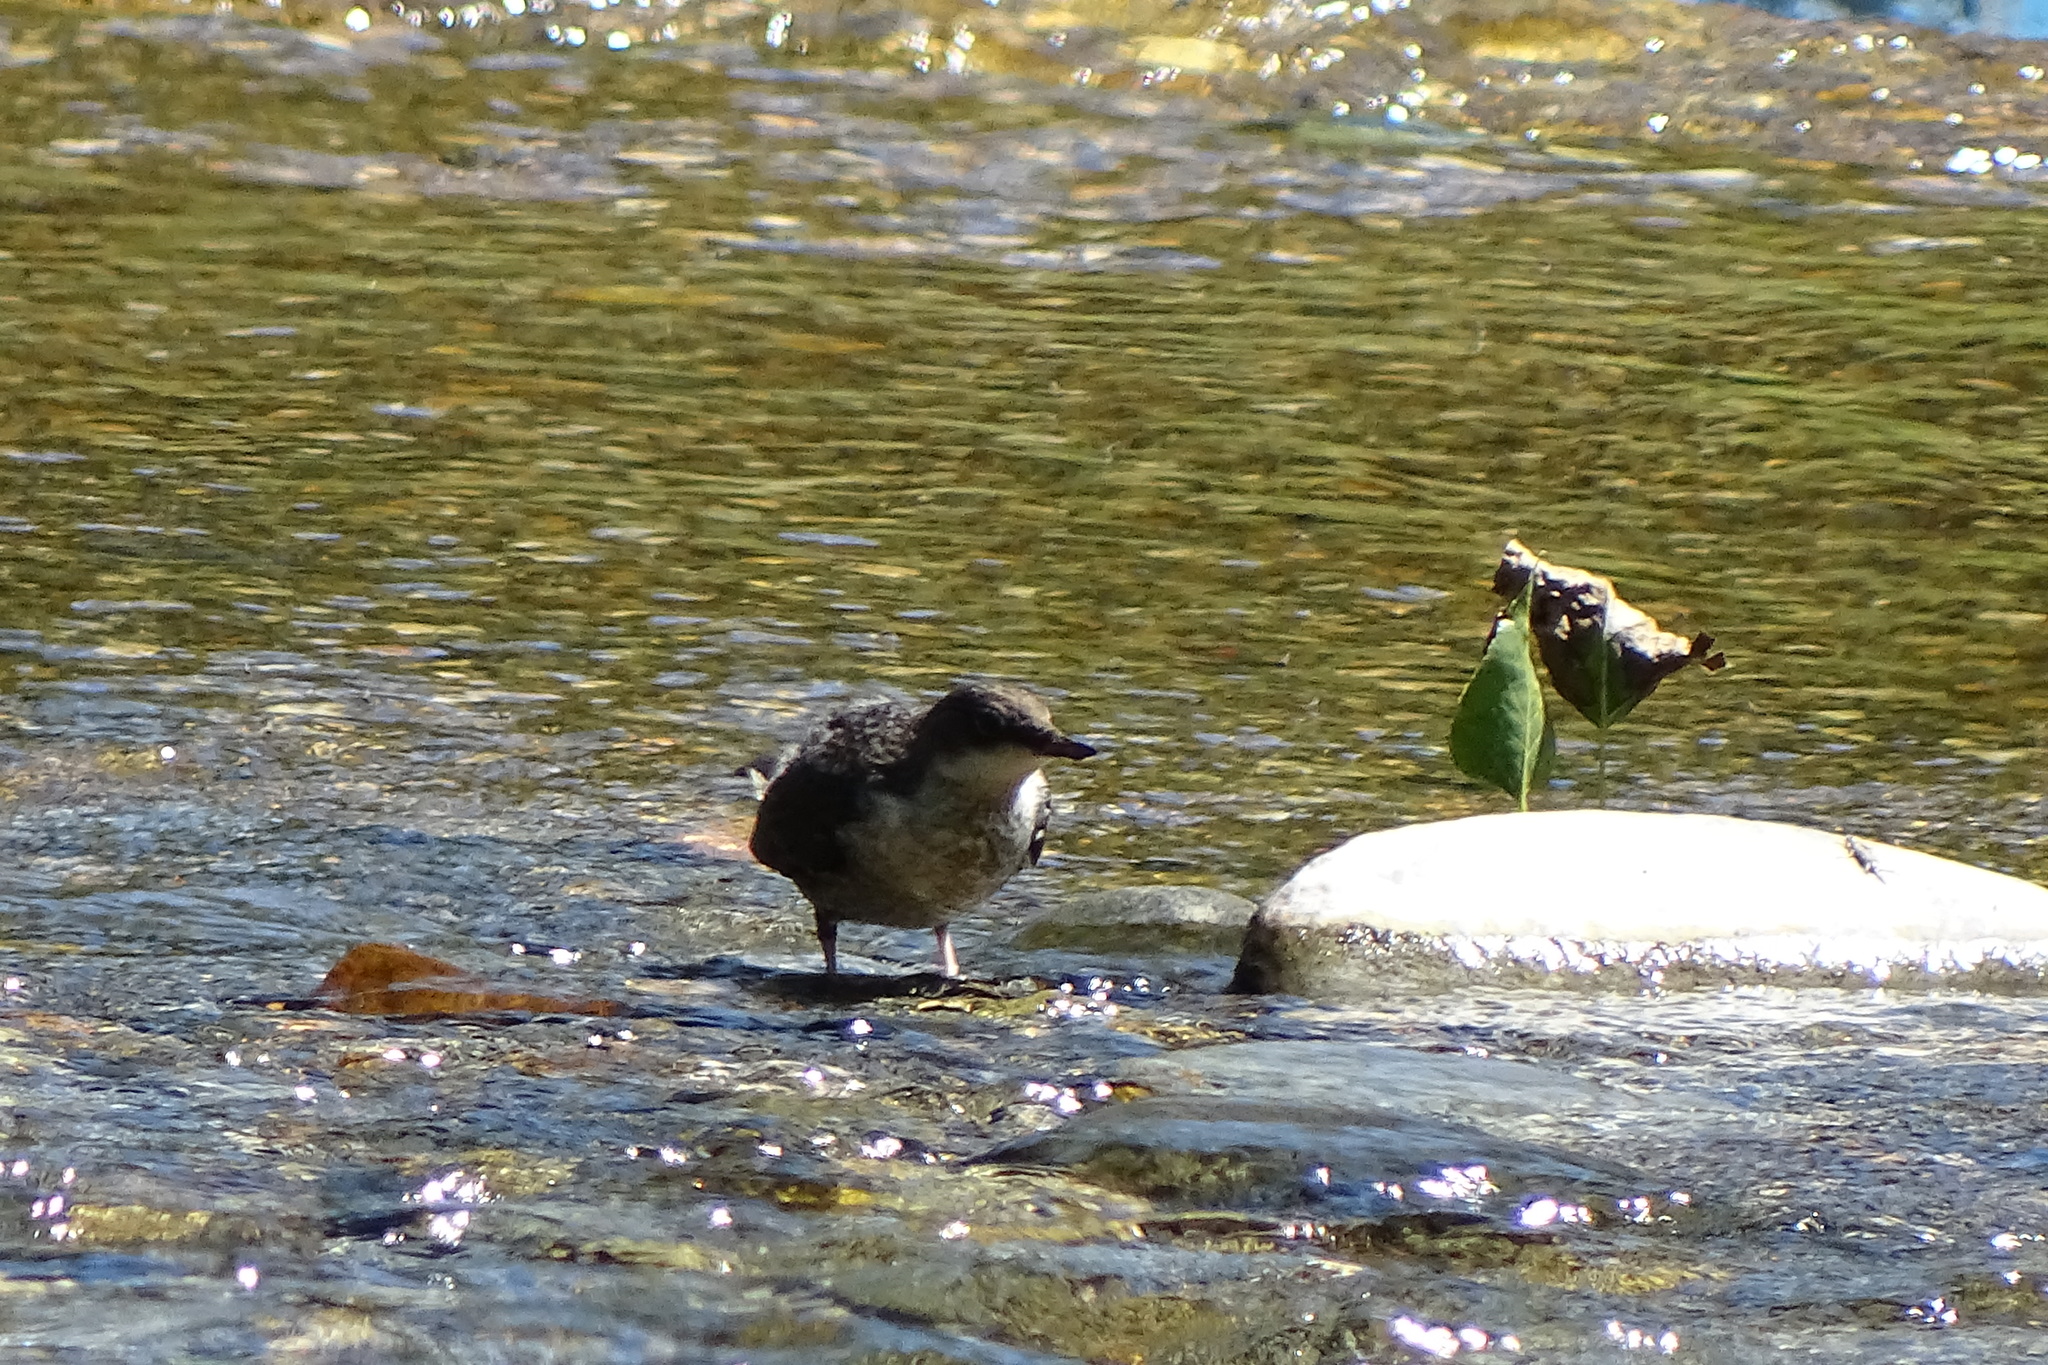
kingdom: Animalia
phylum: Chordata
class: Aves
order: Passeriformes
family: Cinclidae
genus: Cinclus
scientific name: Cinclus cinclus
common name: White-throated dipper
